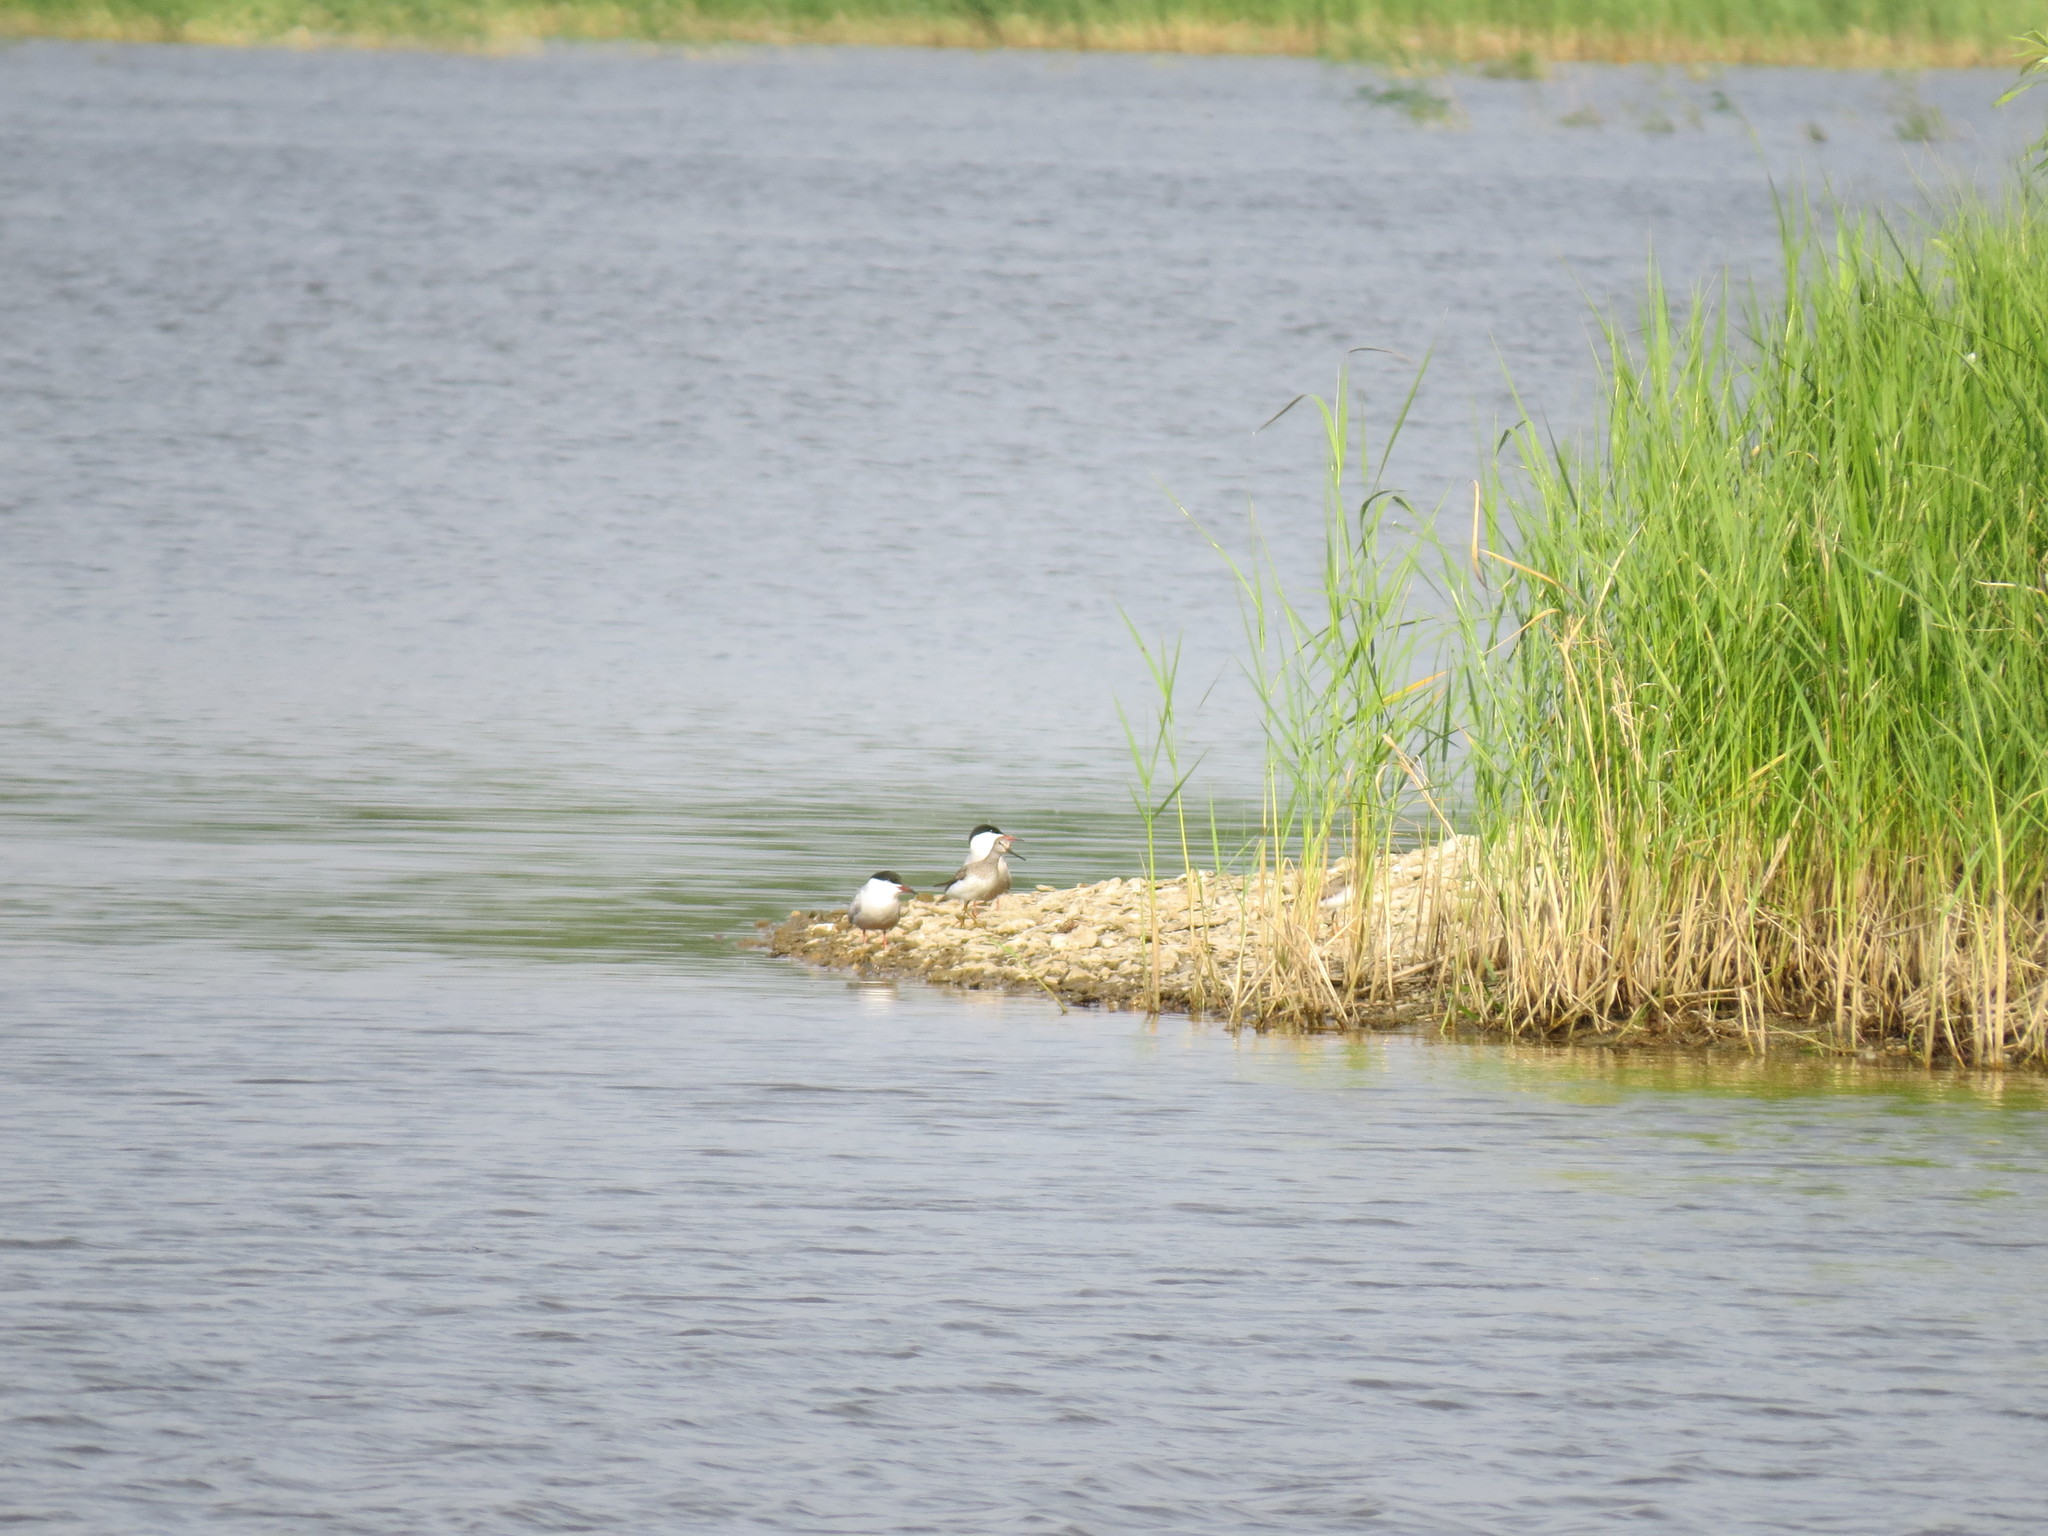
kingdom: Animalia
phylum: Chordata
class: Aves
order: Charadriiformes
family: Scolopacidae
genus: Xenus
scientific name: Xenus cinereus
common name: Terek sandpiper
